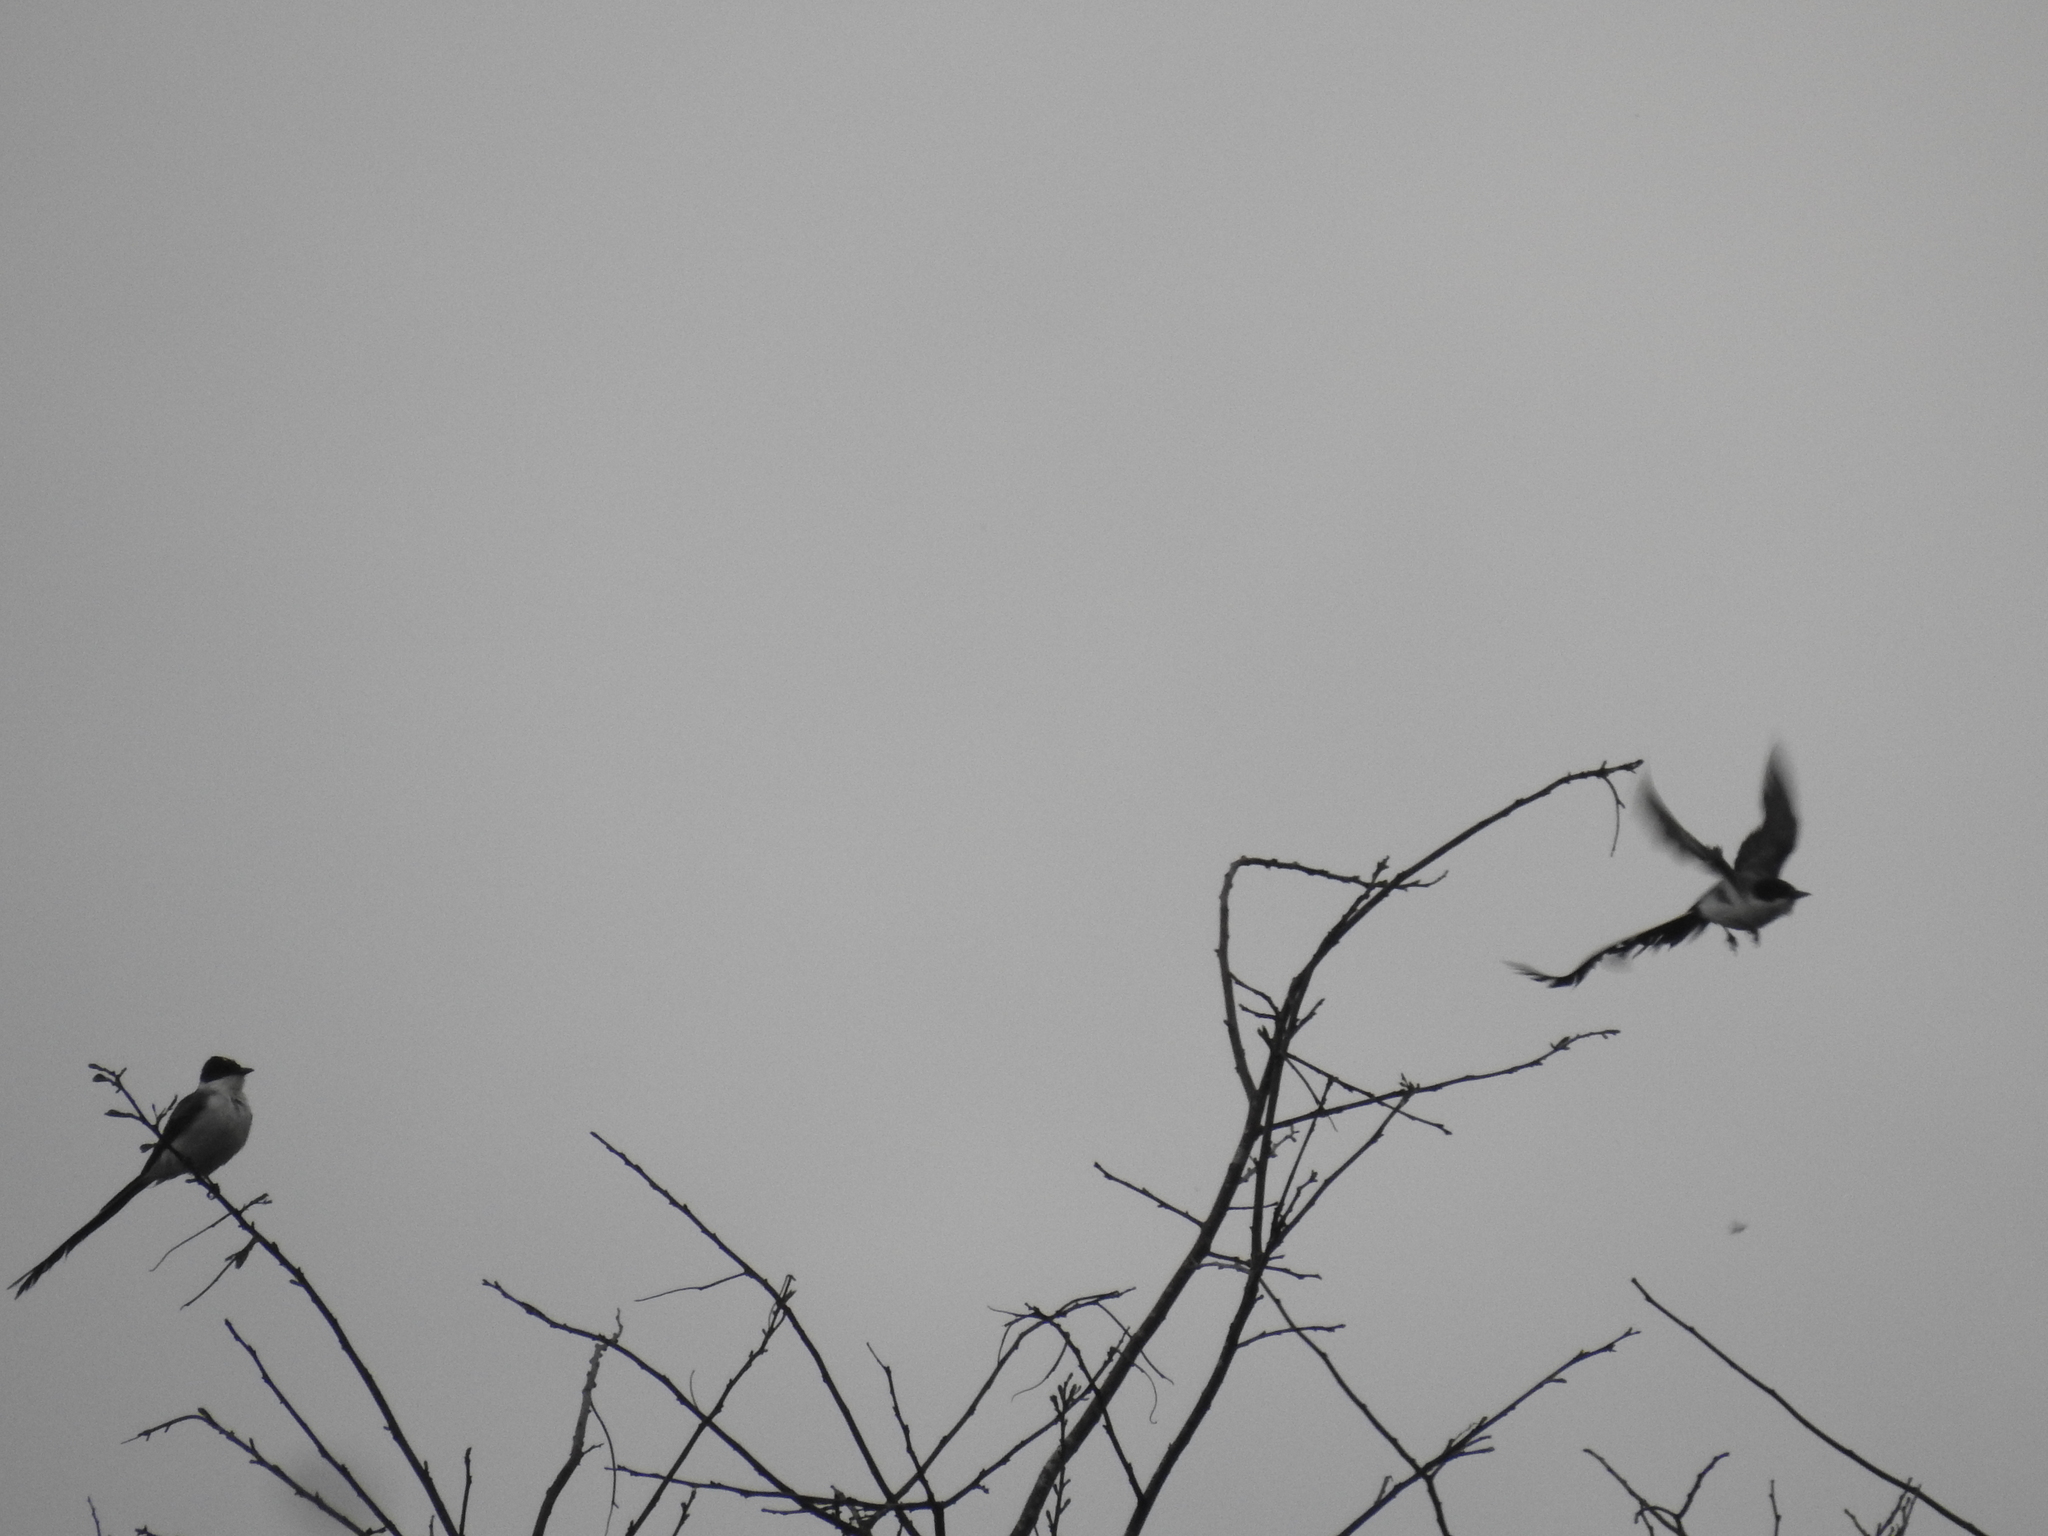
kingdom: Animalia
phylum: Chordata
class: Aves
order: Passeriformes
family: Tyrannidae
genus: Tyrannus
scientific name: Tyrannus savana
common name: Fork-tailed flycatcher
